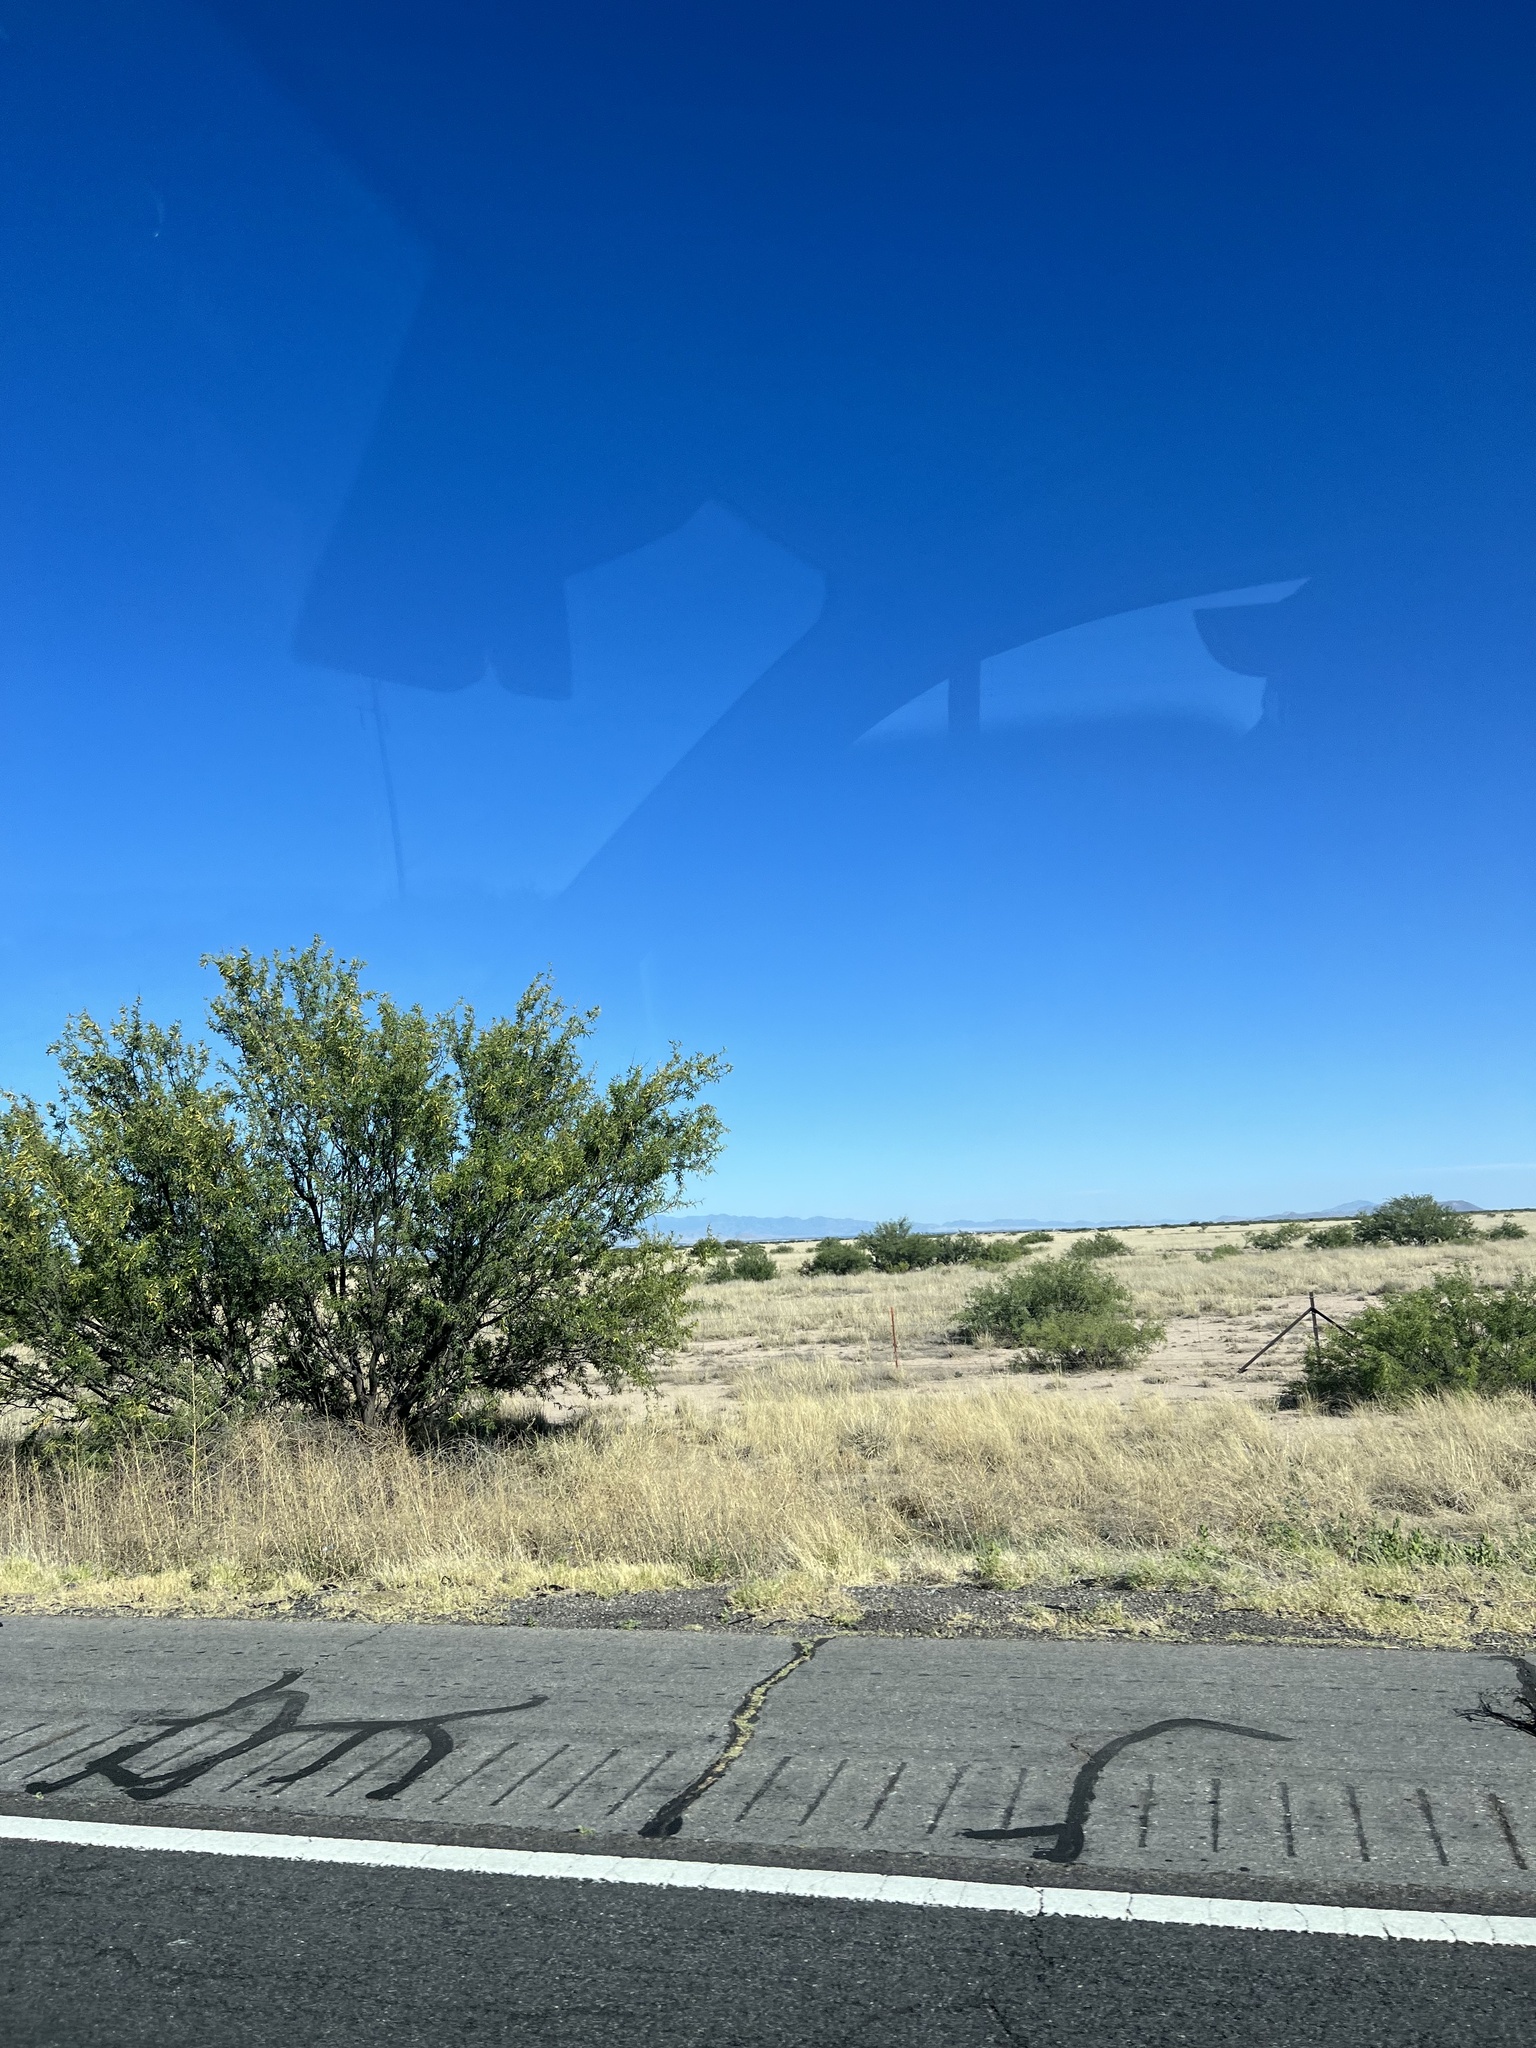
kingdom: Plantae
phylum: Tracheophyta
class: Magnoliopsida
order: Zygophyllales
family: Zygophyllaceae
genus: Larrea
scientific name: Larrea tridentata
